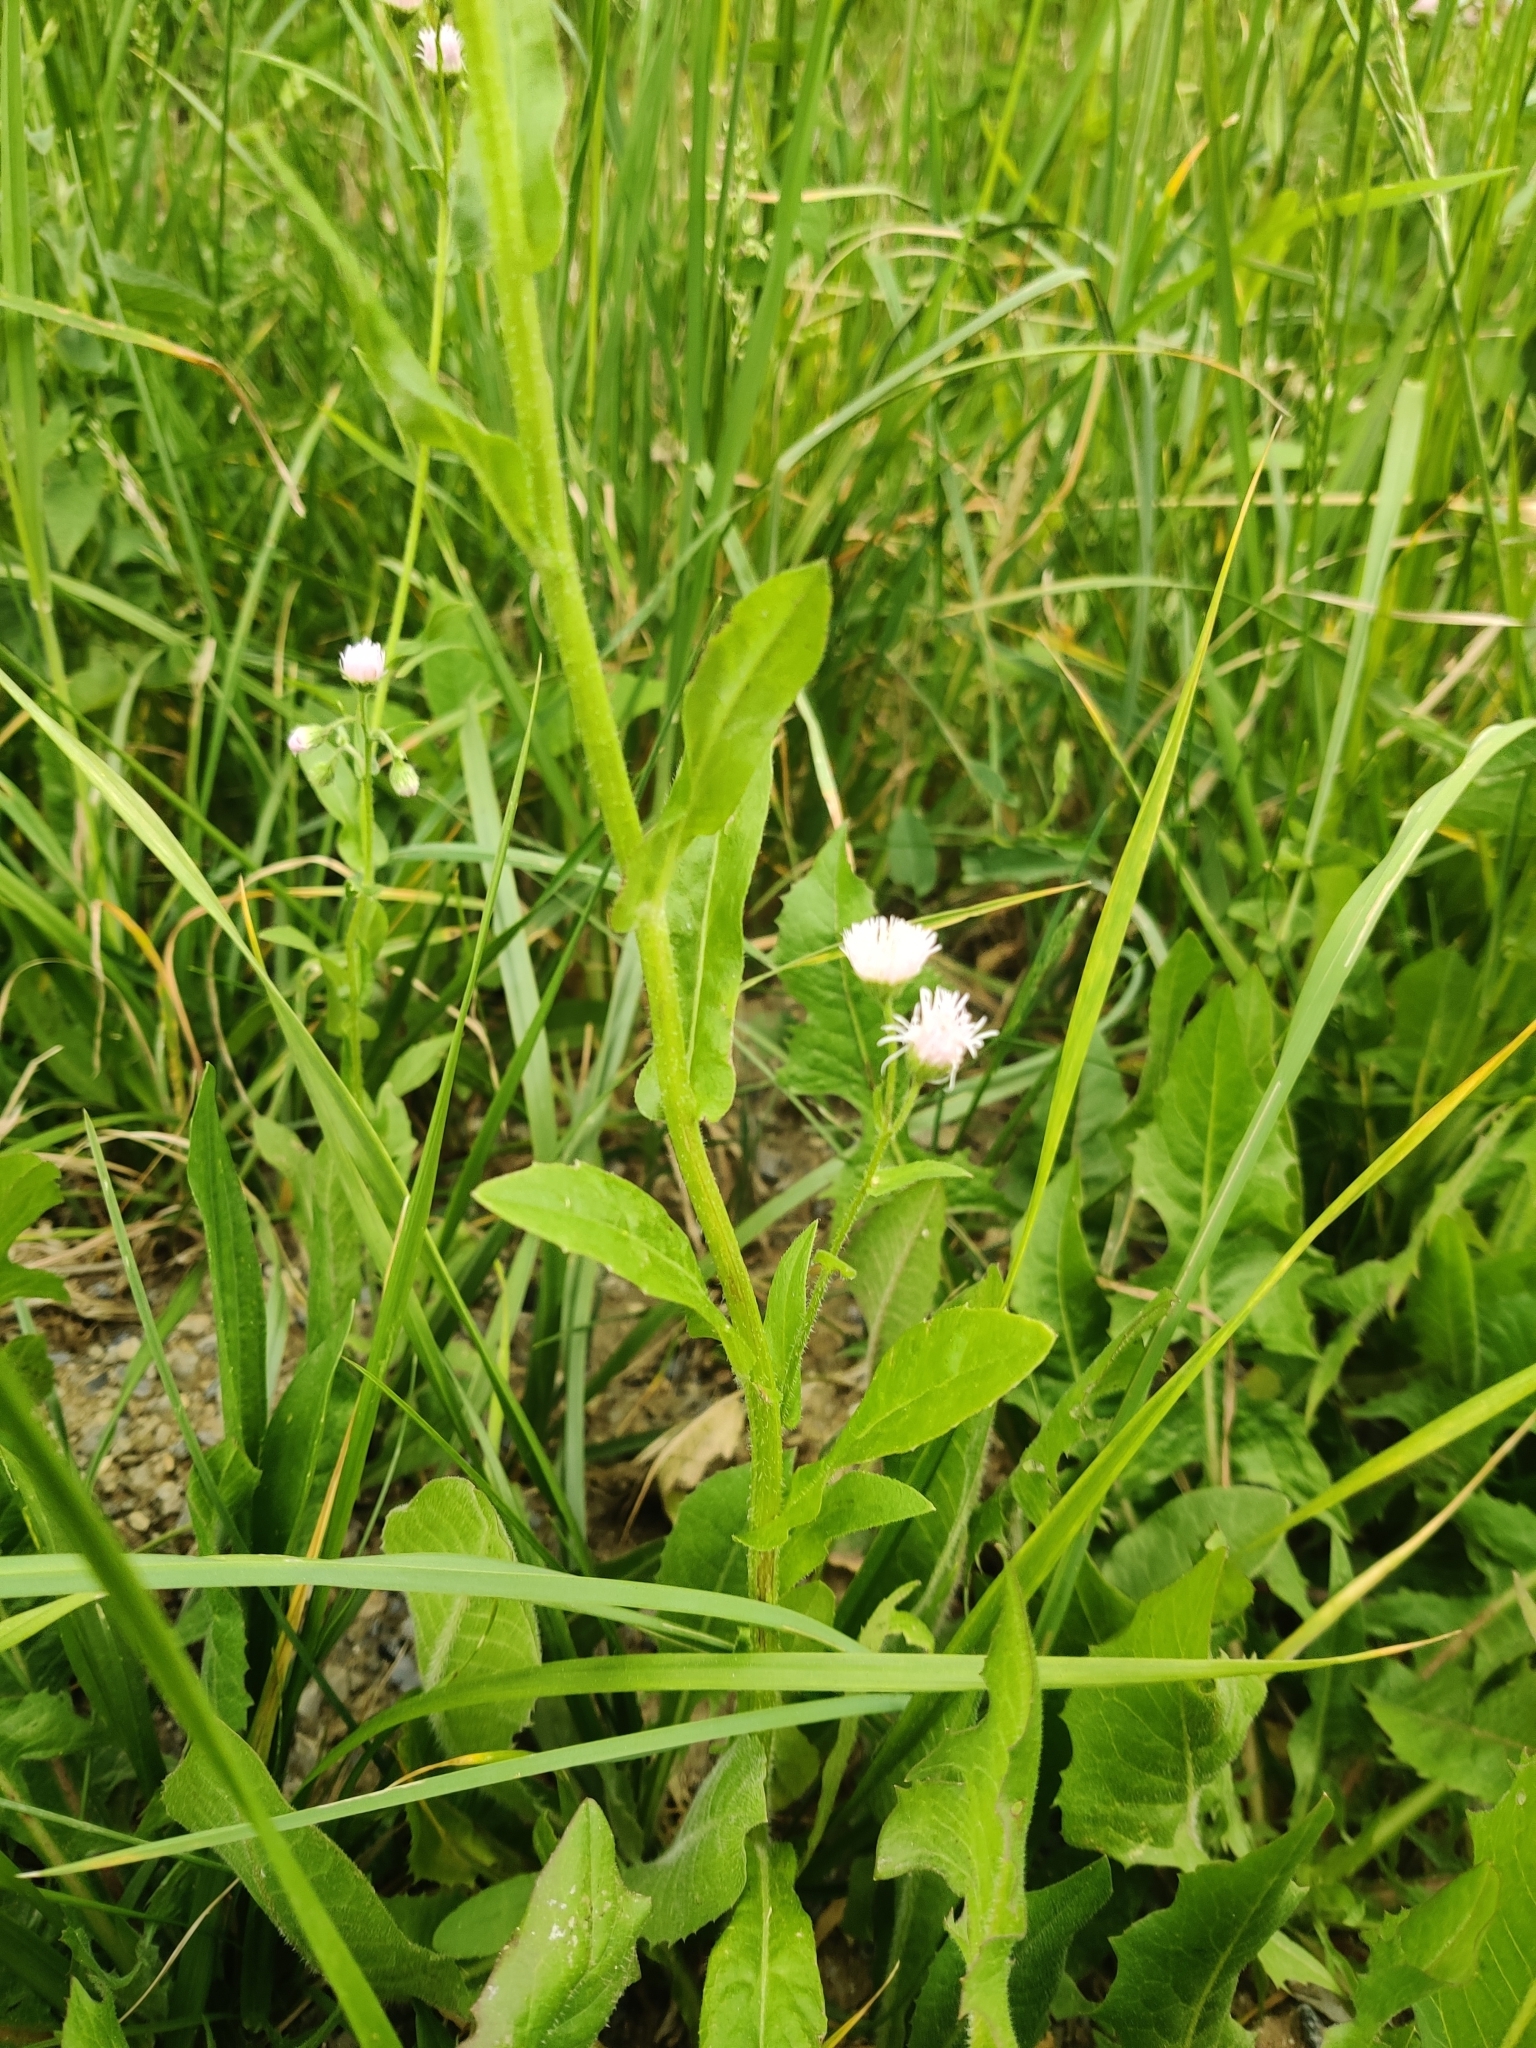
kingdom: Plantae
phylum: Tracheophyta
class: Magnoliopsida
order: Asterales
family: Asteraceae
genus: Erigeron
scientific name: Erigeron philadelphicus
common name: Robin's-plantain
